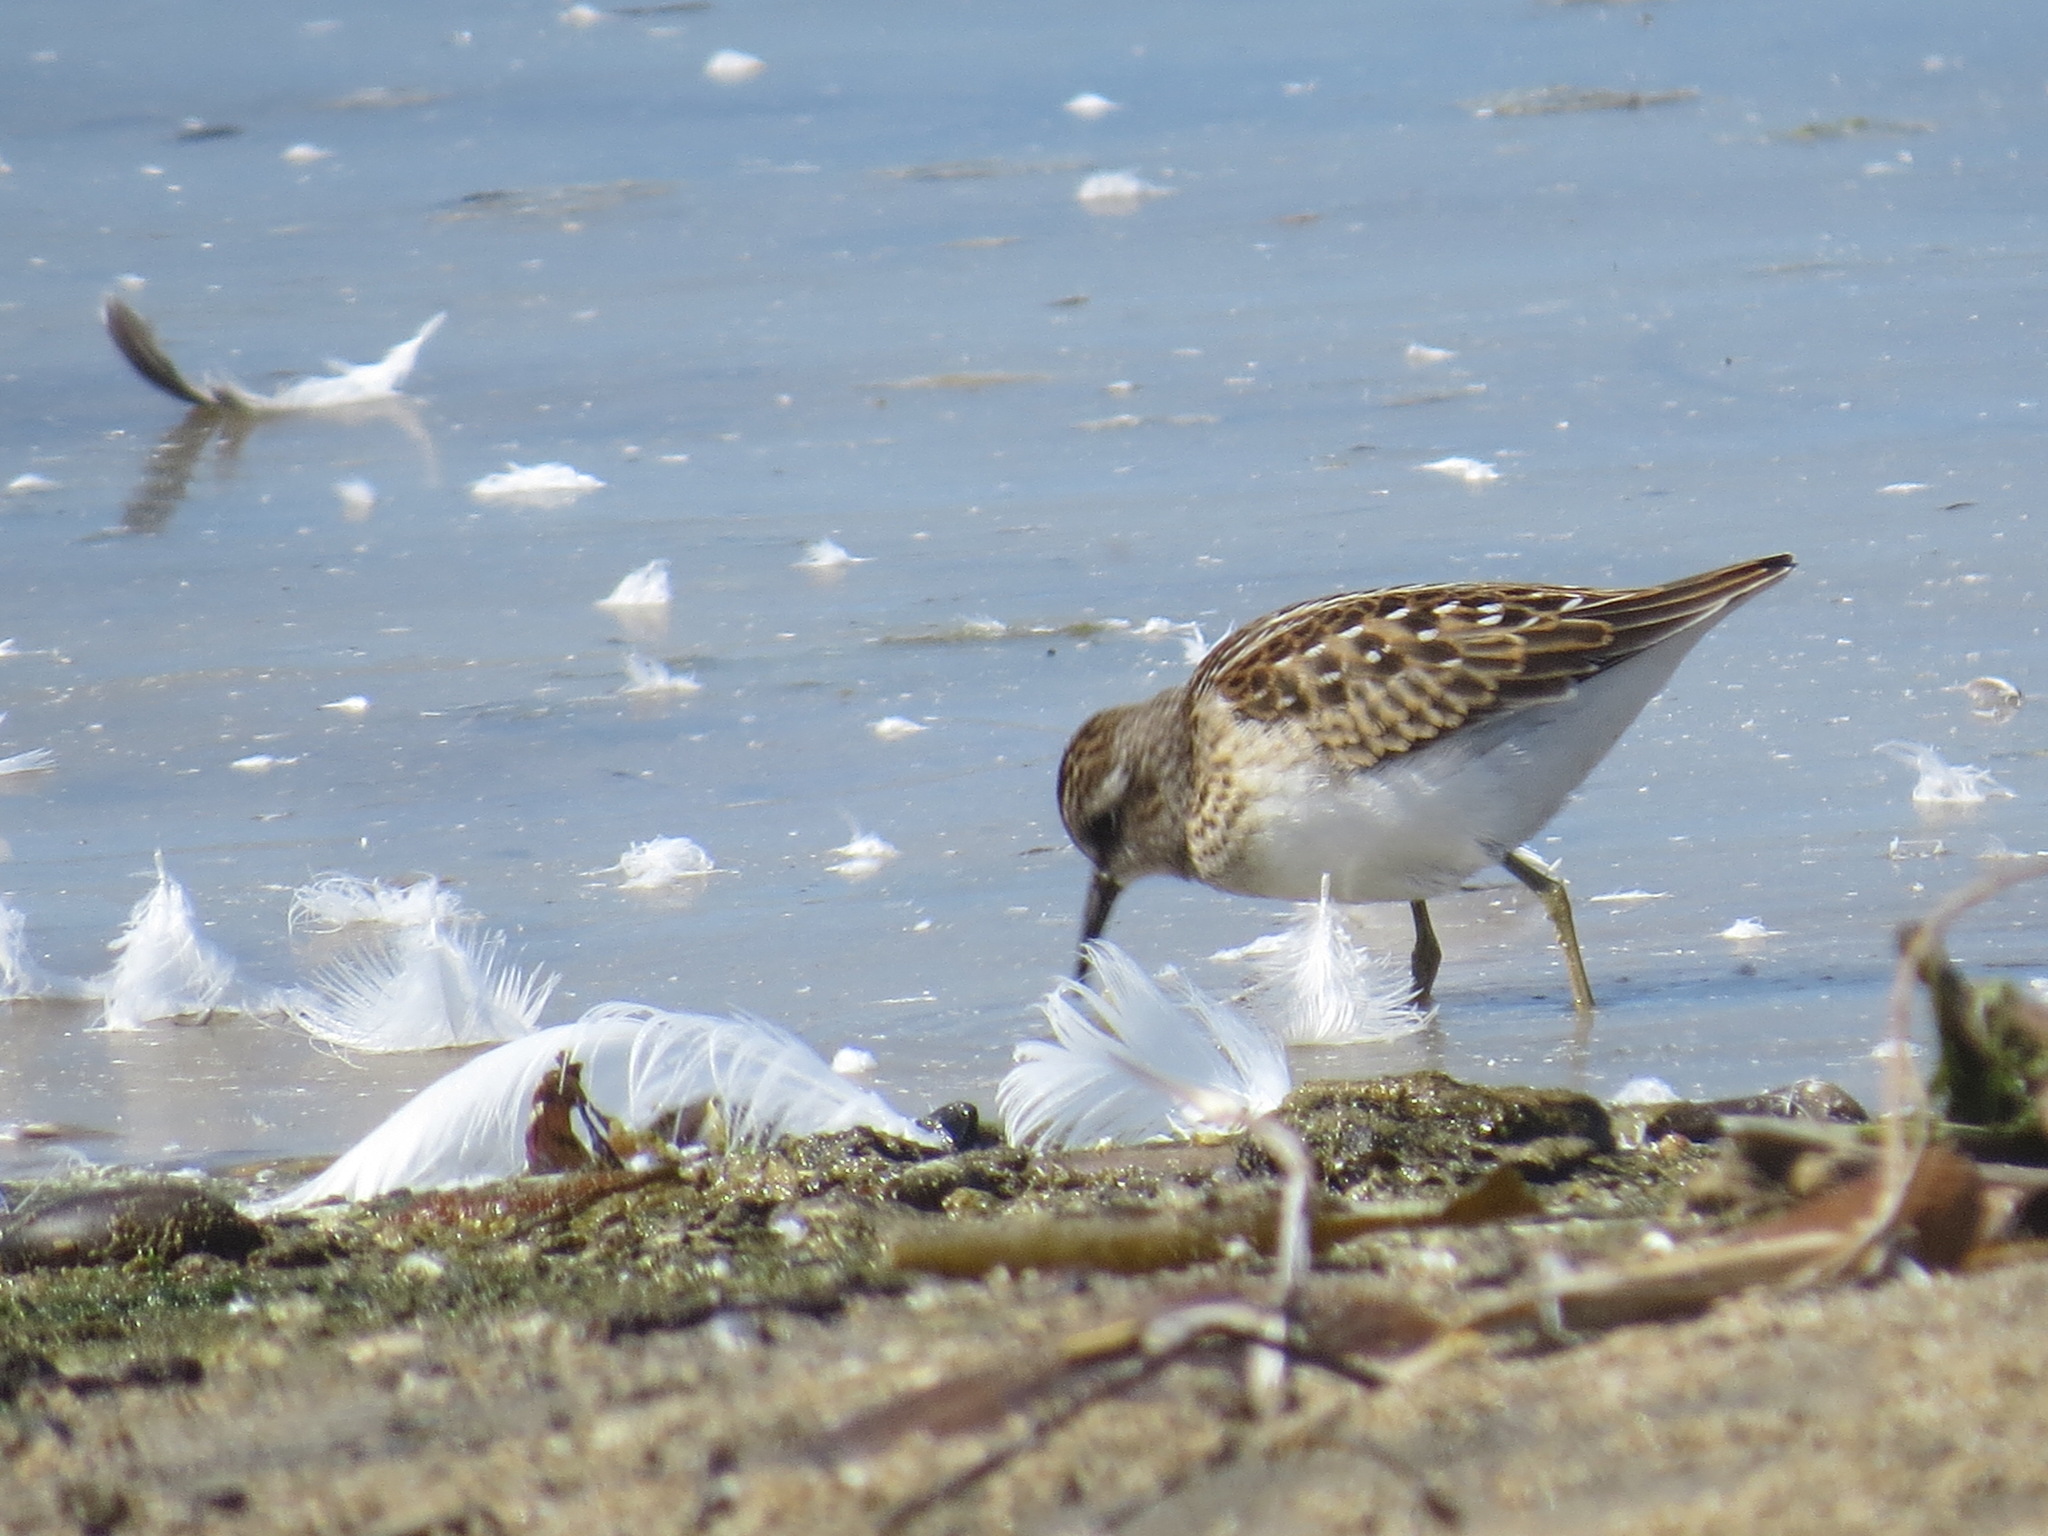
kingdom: Animalia
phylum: Chordata
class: Aves
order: Charadriiformes
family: Scolopacidae
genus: Calidris
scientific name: Calidris minutilla
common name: Least sandpiper
